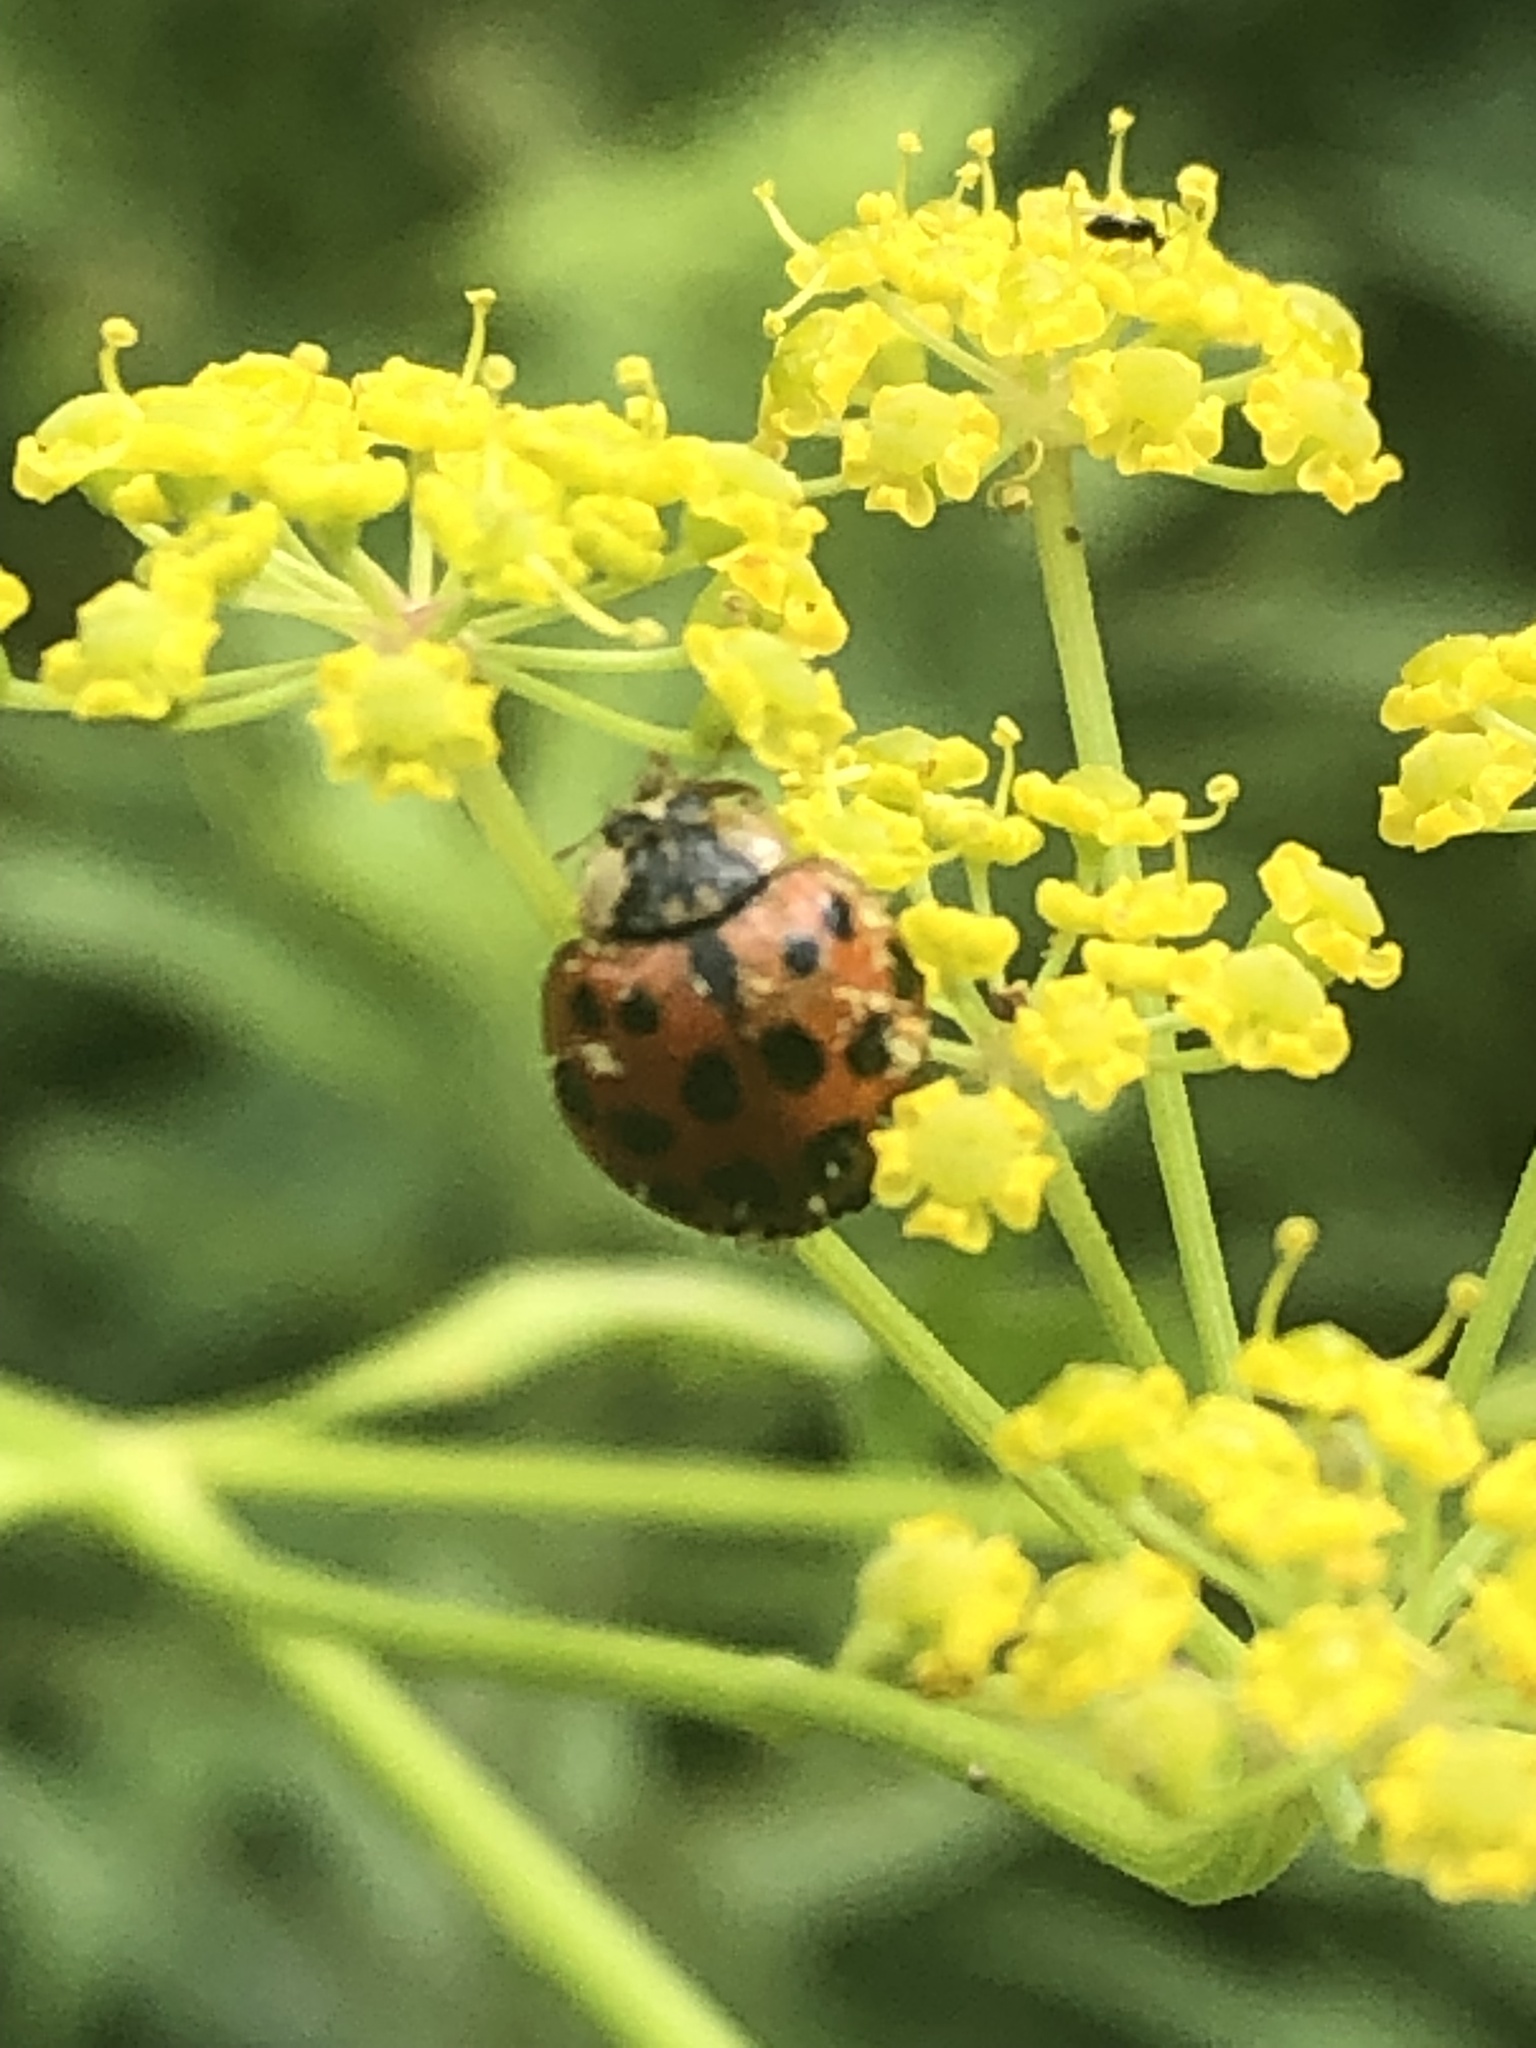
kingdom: Animalia
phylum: Arthropoda
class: Insecta
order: Coleoptera
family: Coccinellidae
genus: Harmonia
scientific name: Harmonia axyridis
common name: Harlequin ladybird
